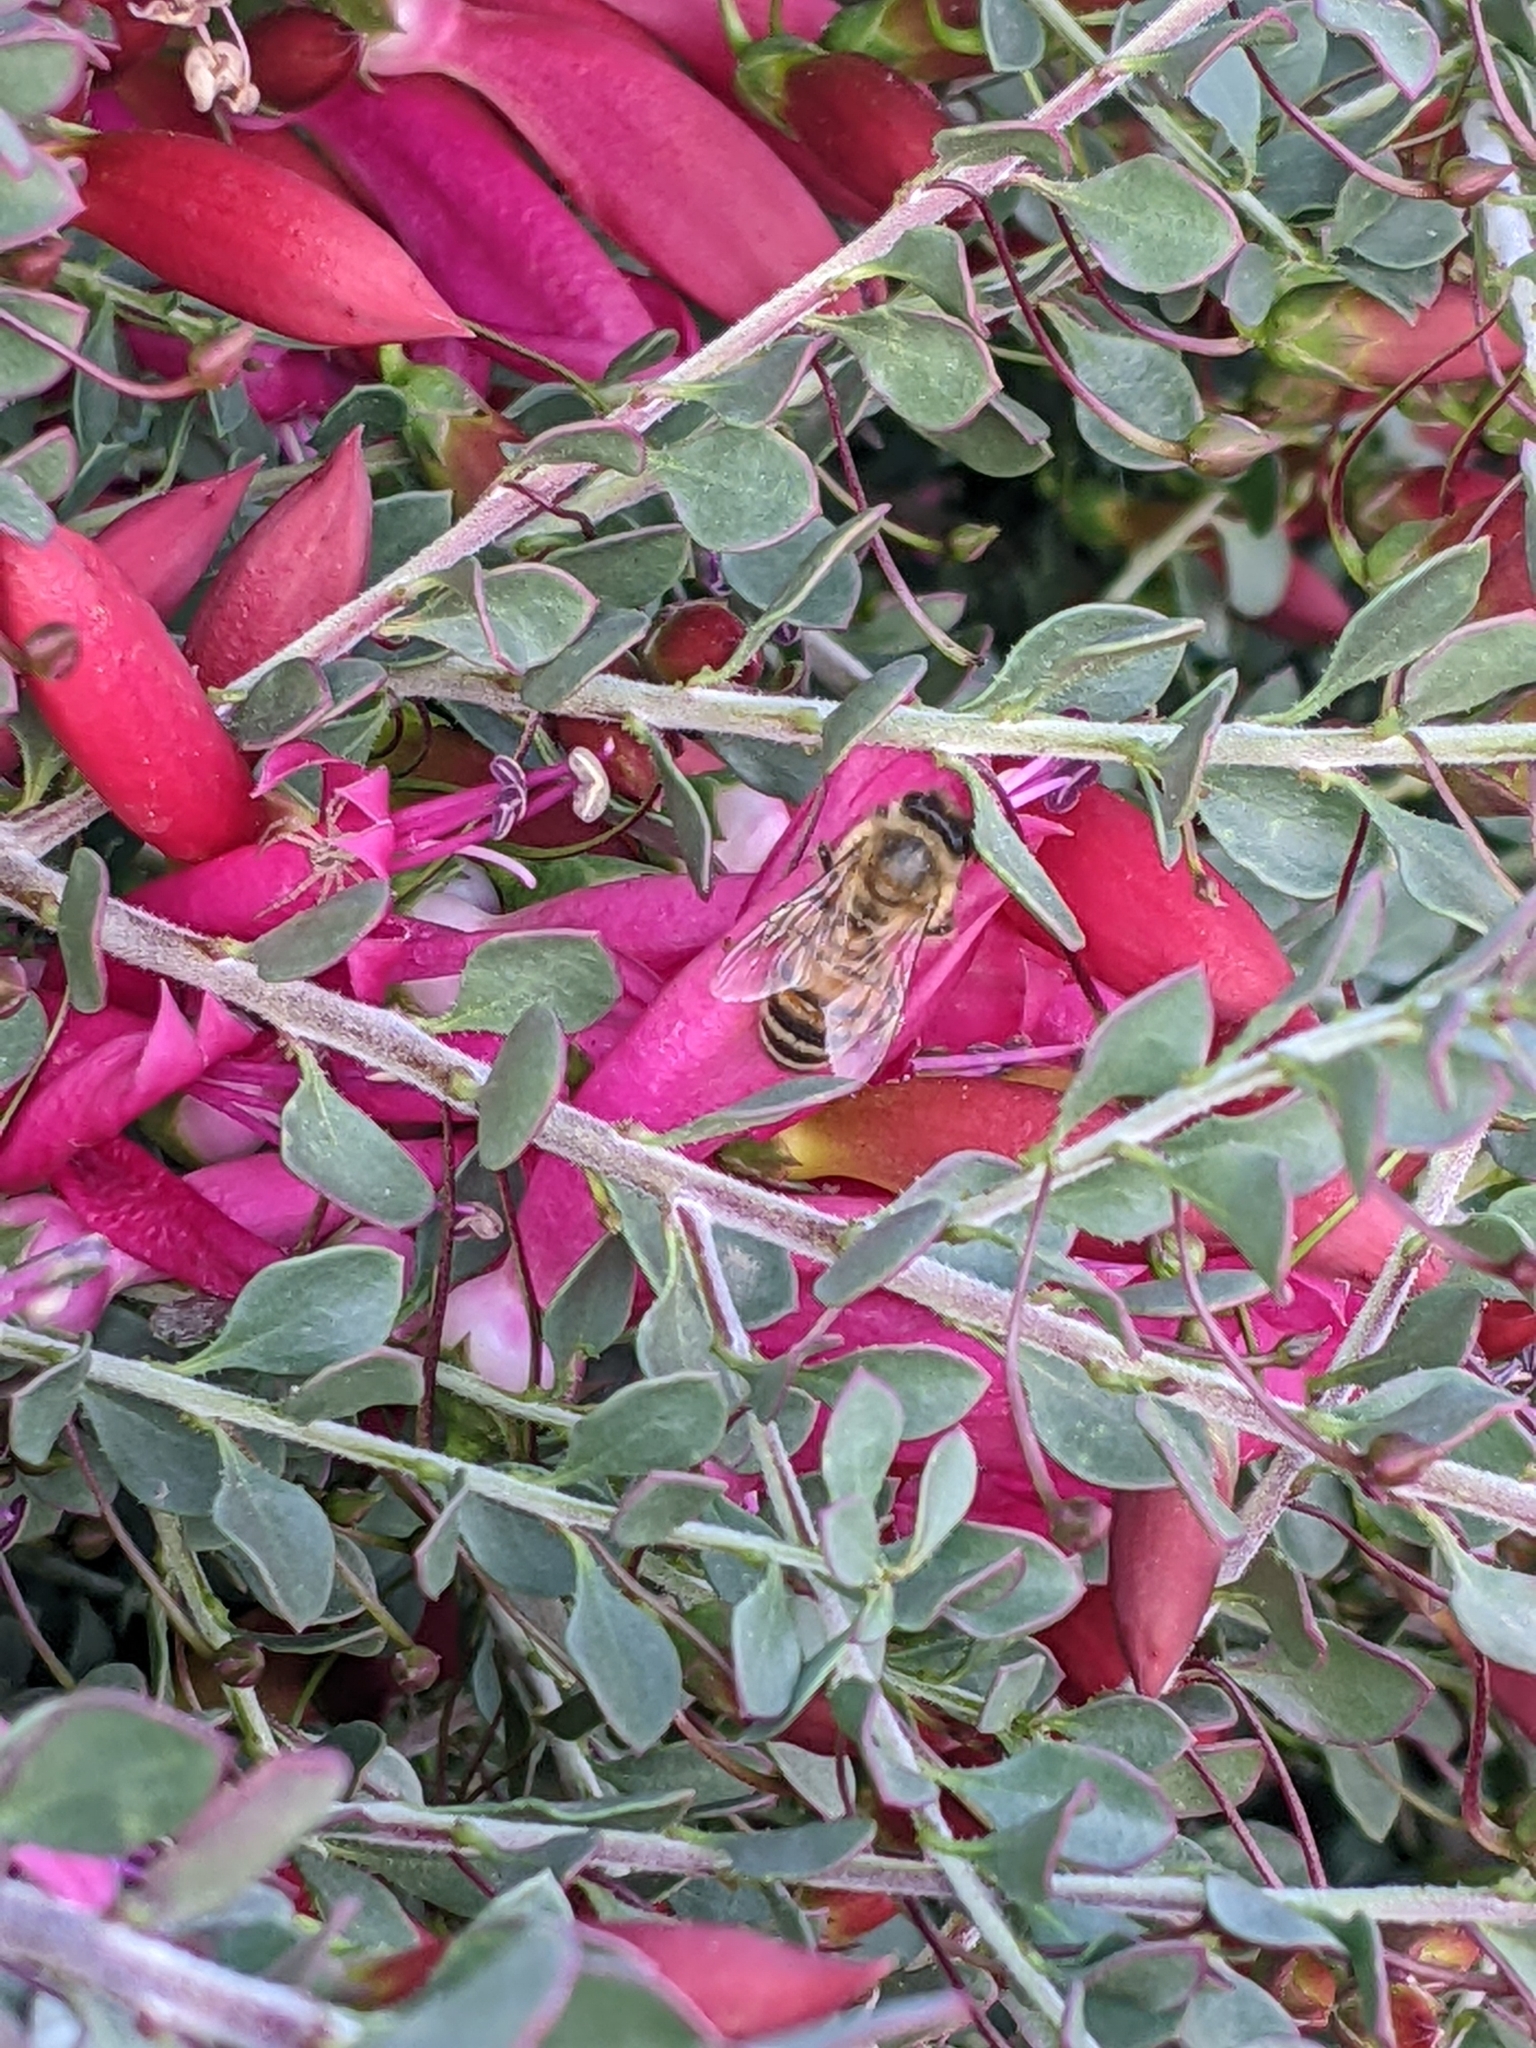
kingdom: Animalia
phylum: Arthropoda
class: Insecta
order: Hymenoptera
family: Apidae
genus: Apis
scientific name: Apis mellifera
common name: Honey bee
